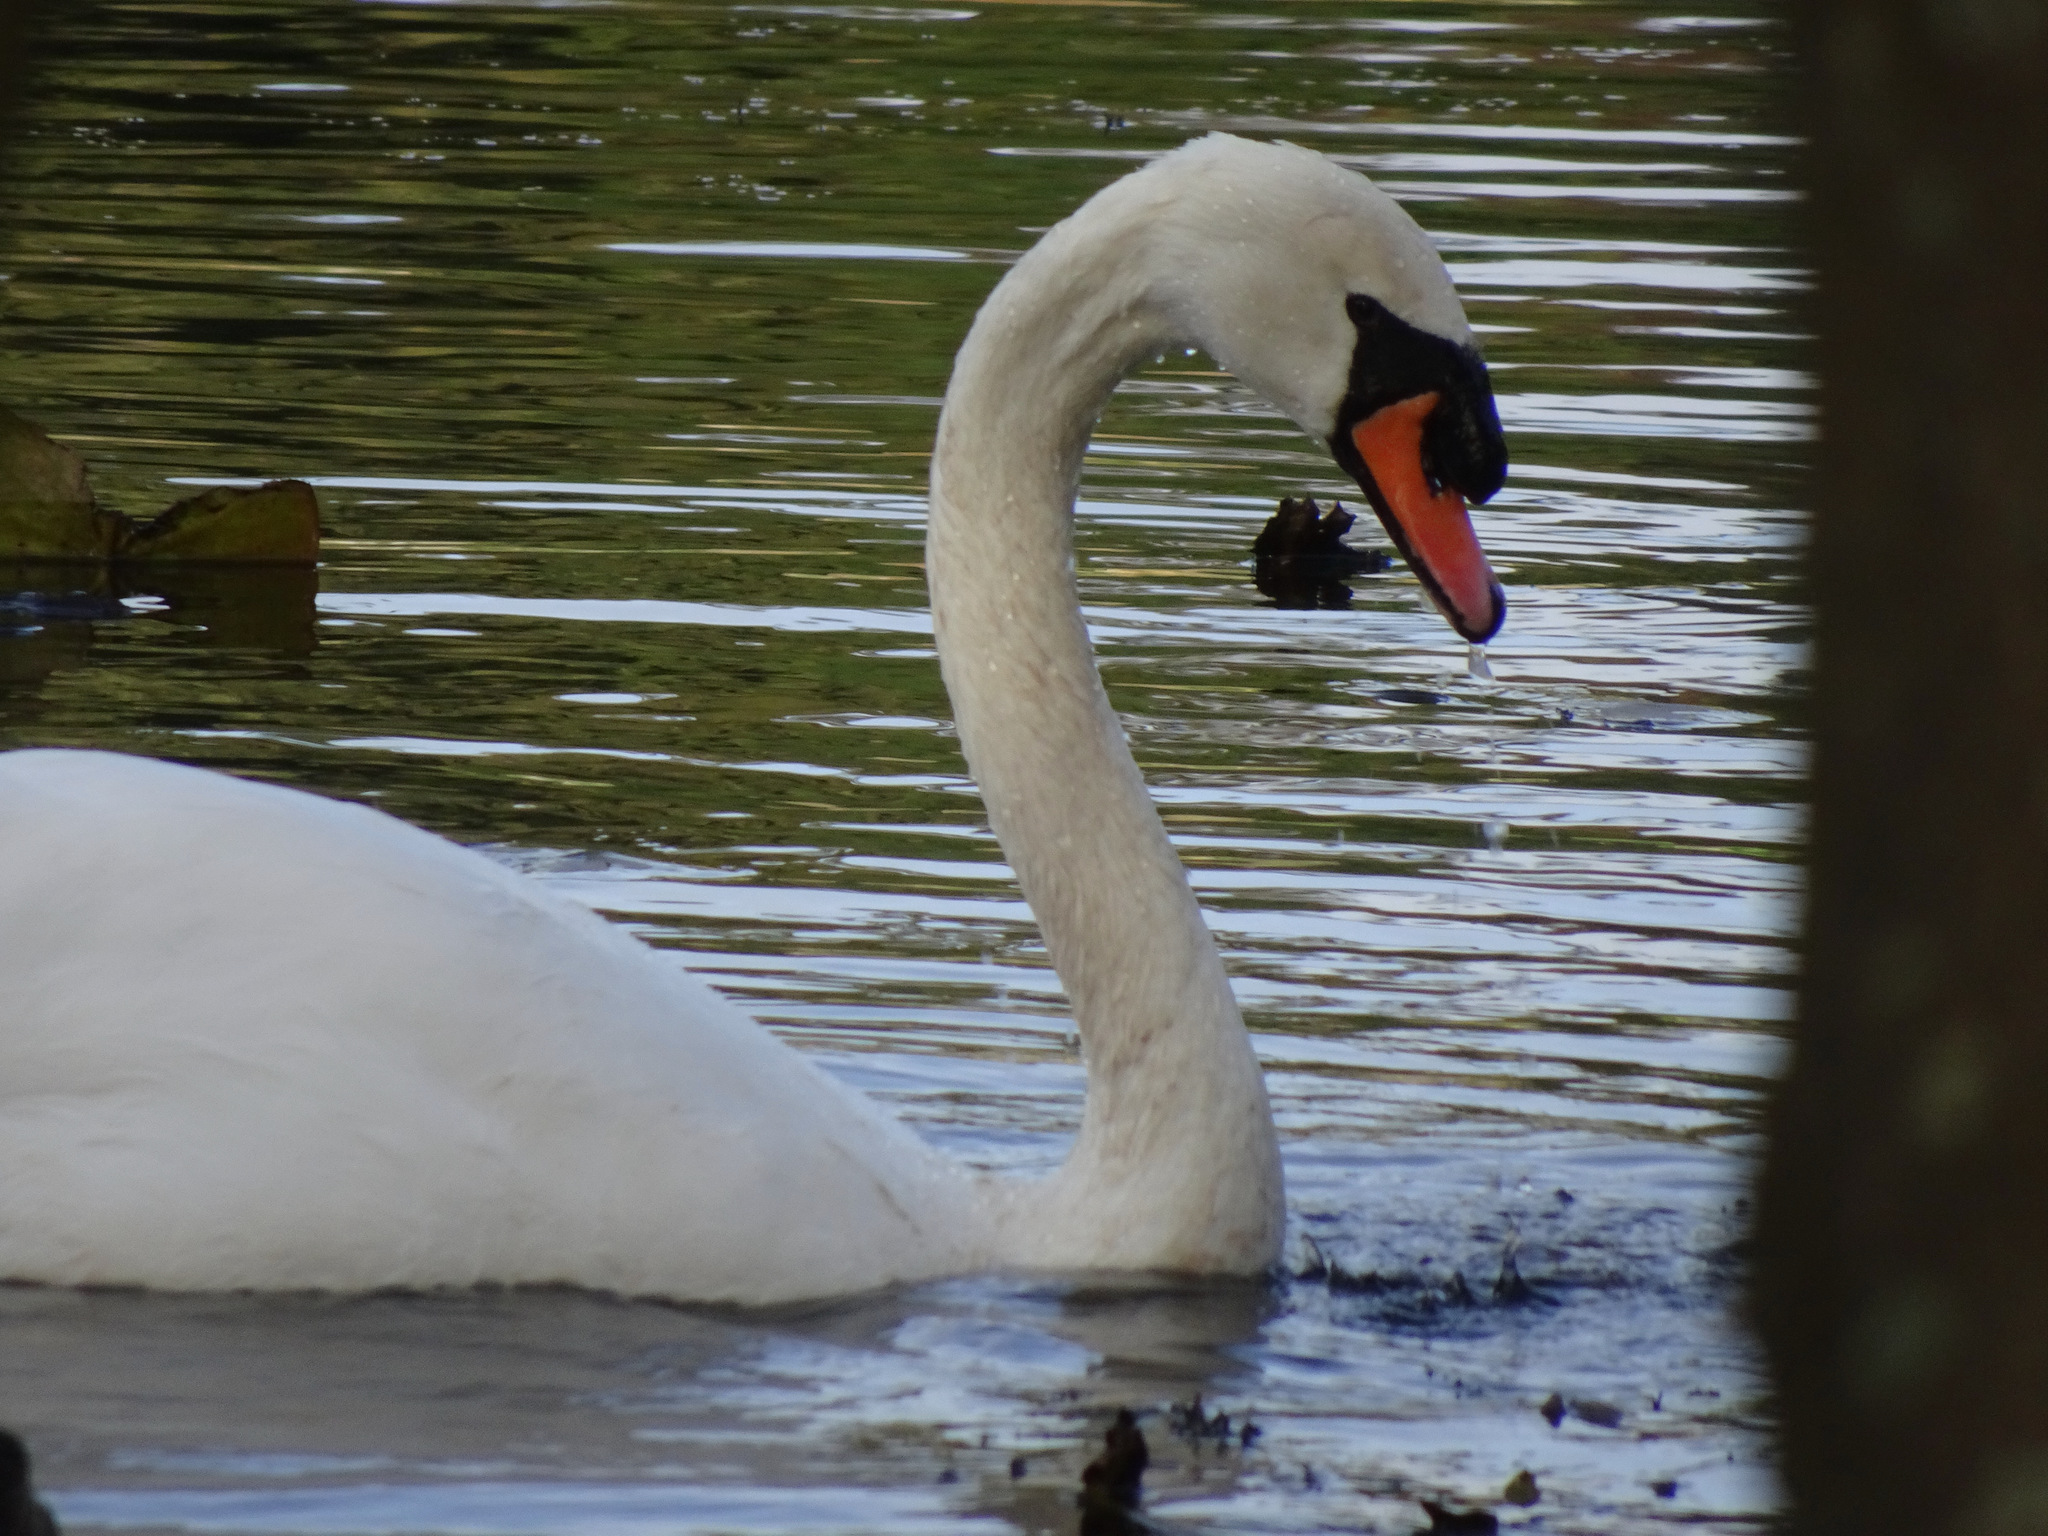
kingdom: Animalia
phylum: Chordata
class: Aves
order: Anseriformes
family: Anatidae
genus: Cygnus
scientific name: Cygnus olor
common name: Mute swan
